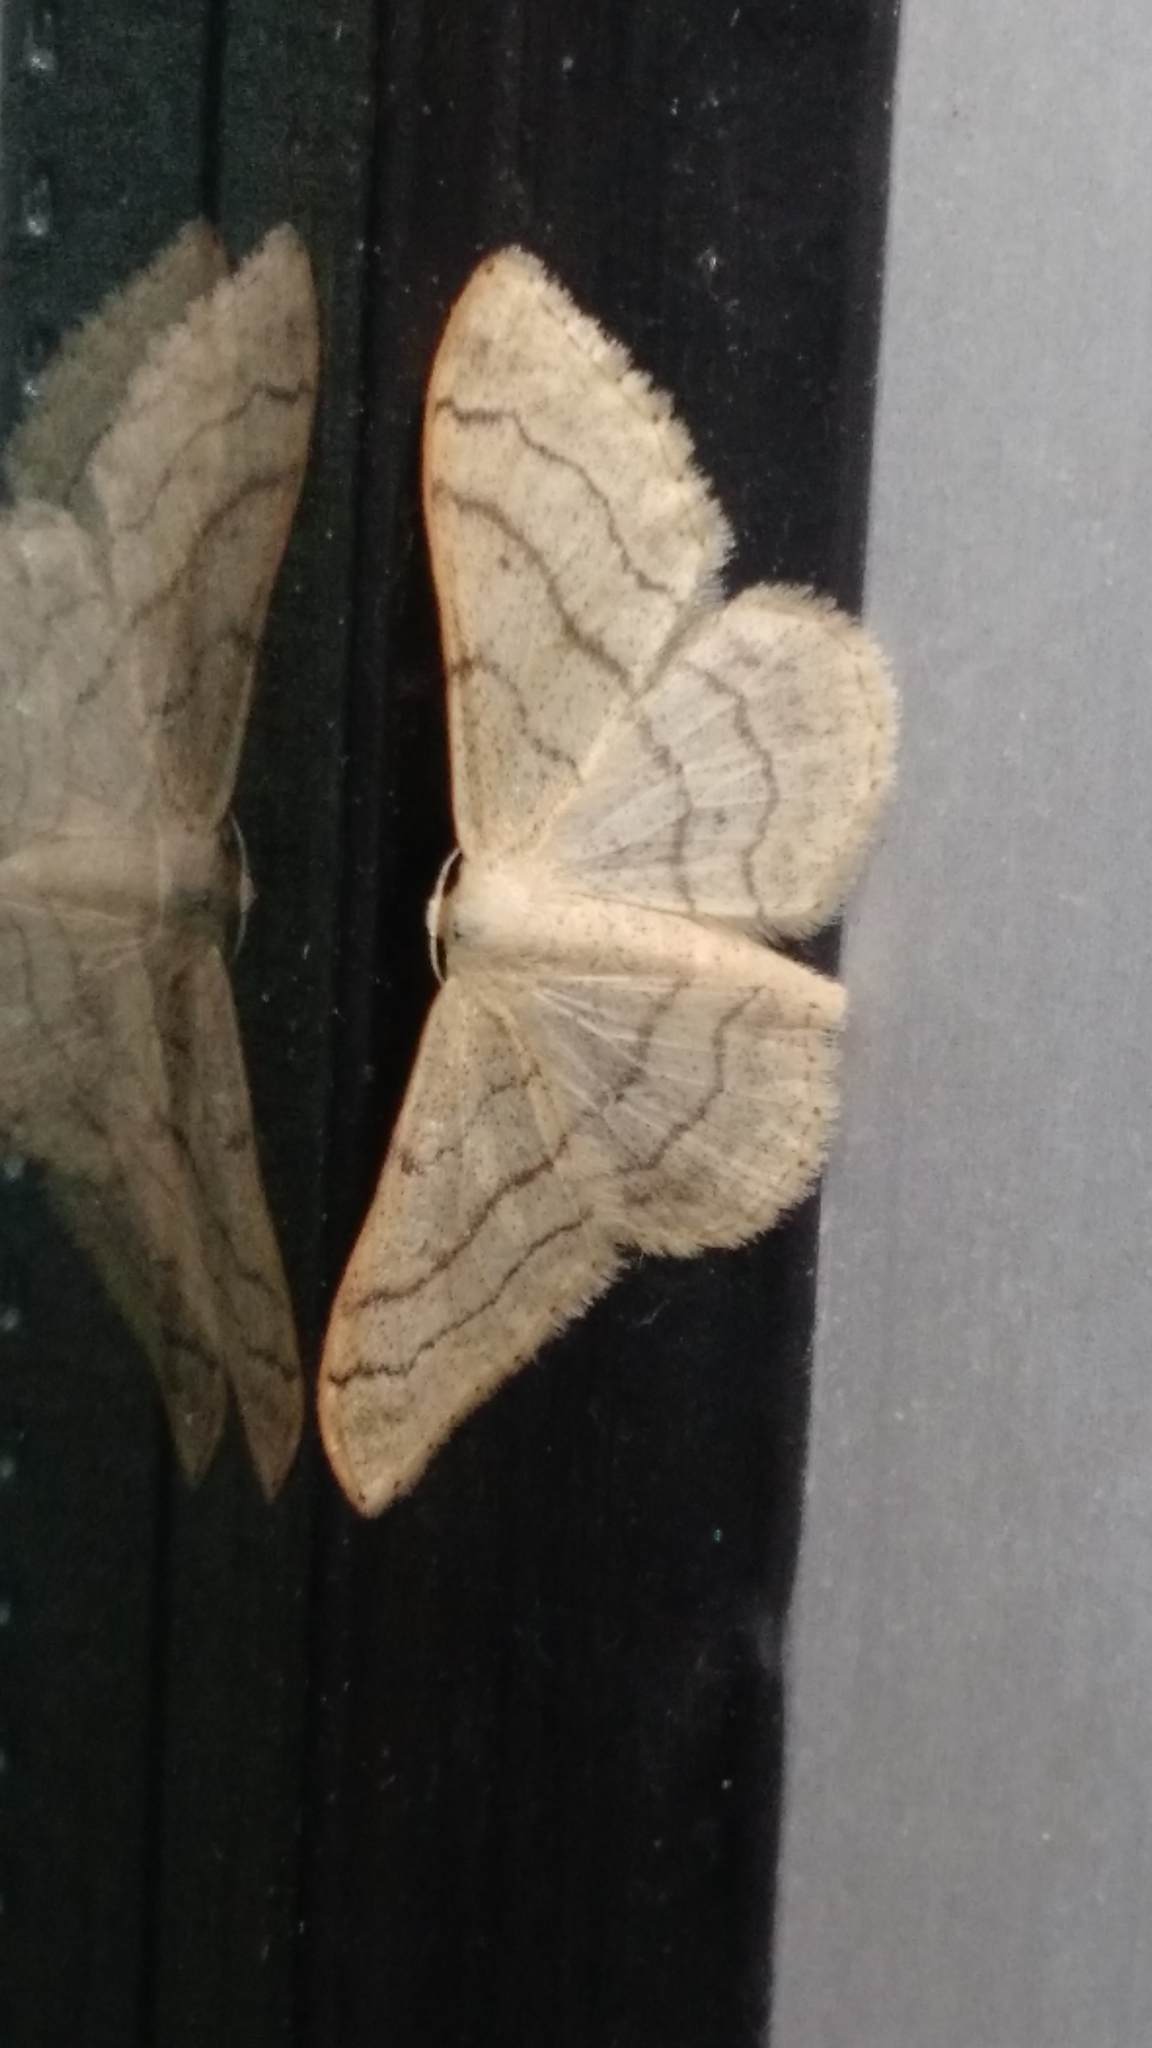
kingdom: Animalia
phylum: Arthropoda
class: Insecta
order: Lepidoptera
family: Geometridae
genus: Idaea
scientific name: Idaea aversata
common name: Riband wave
